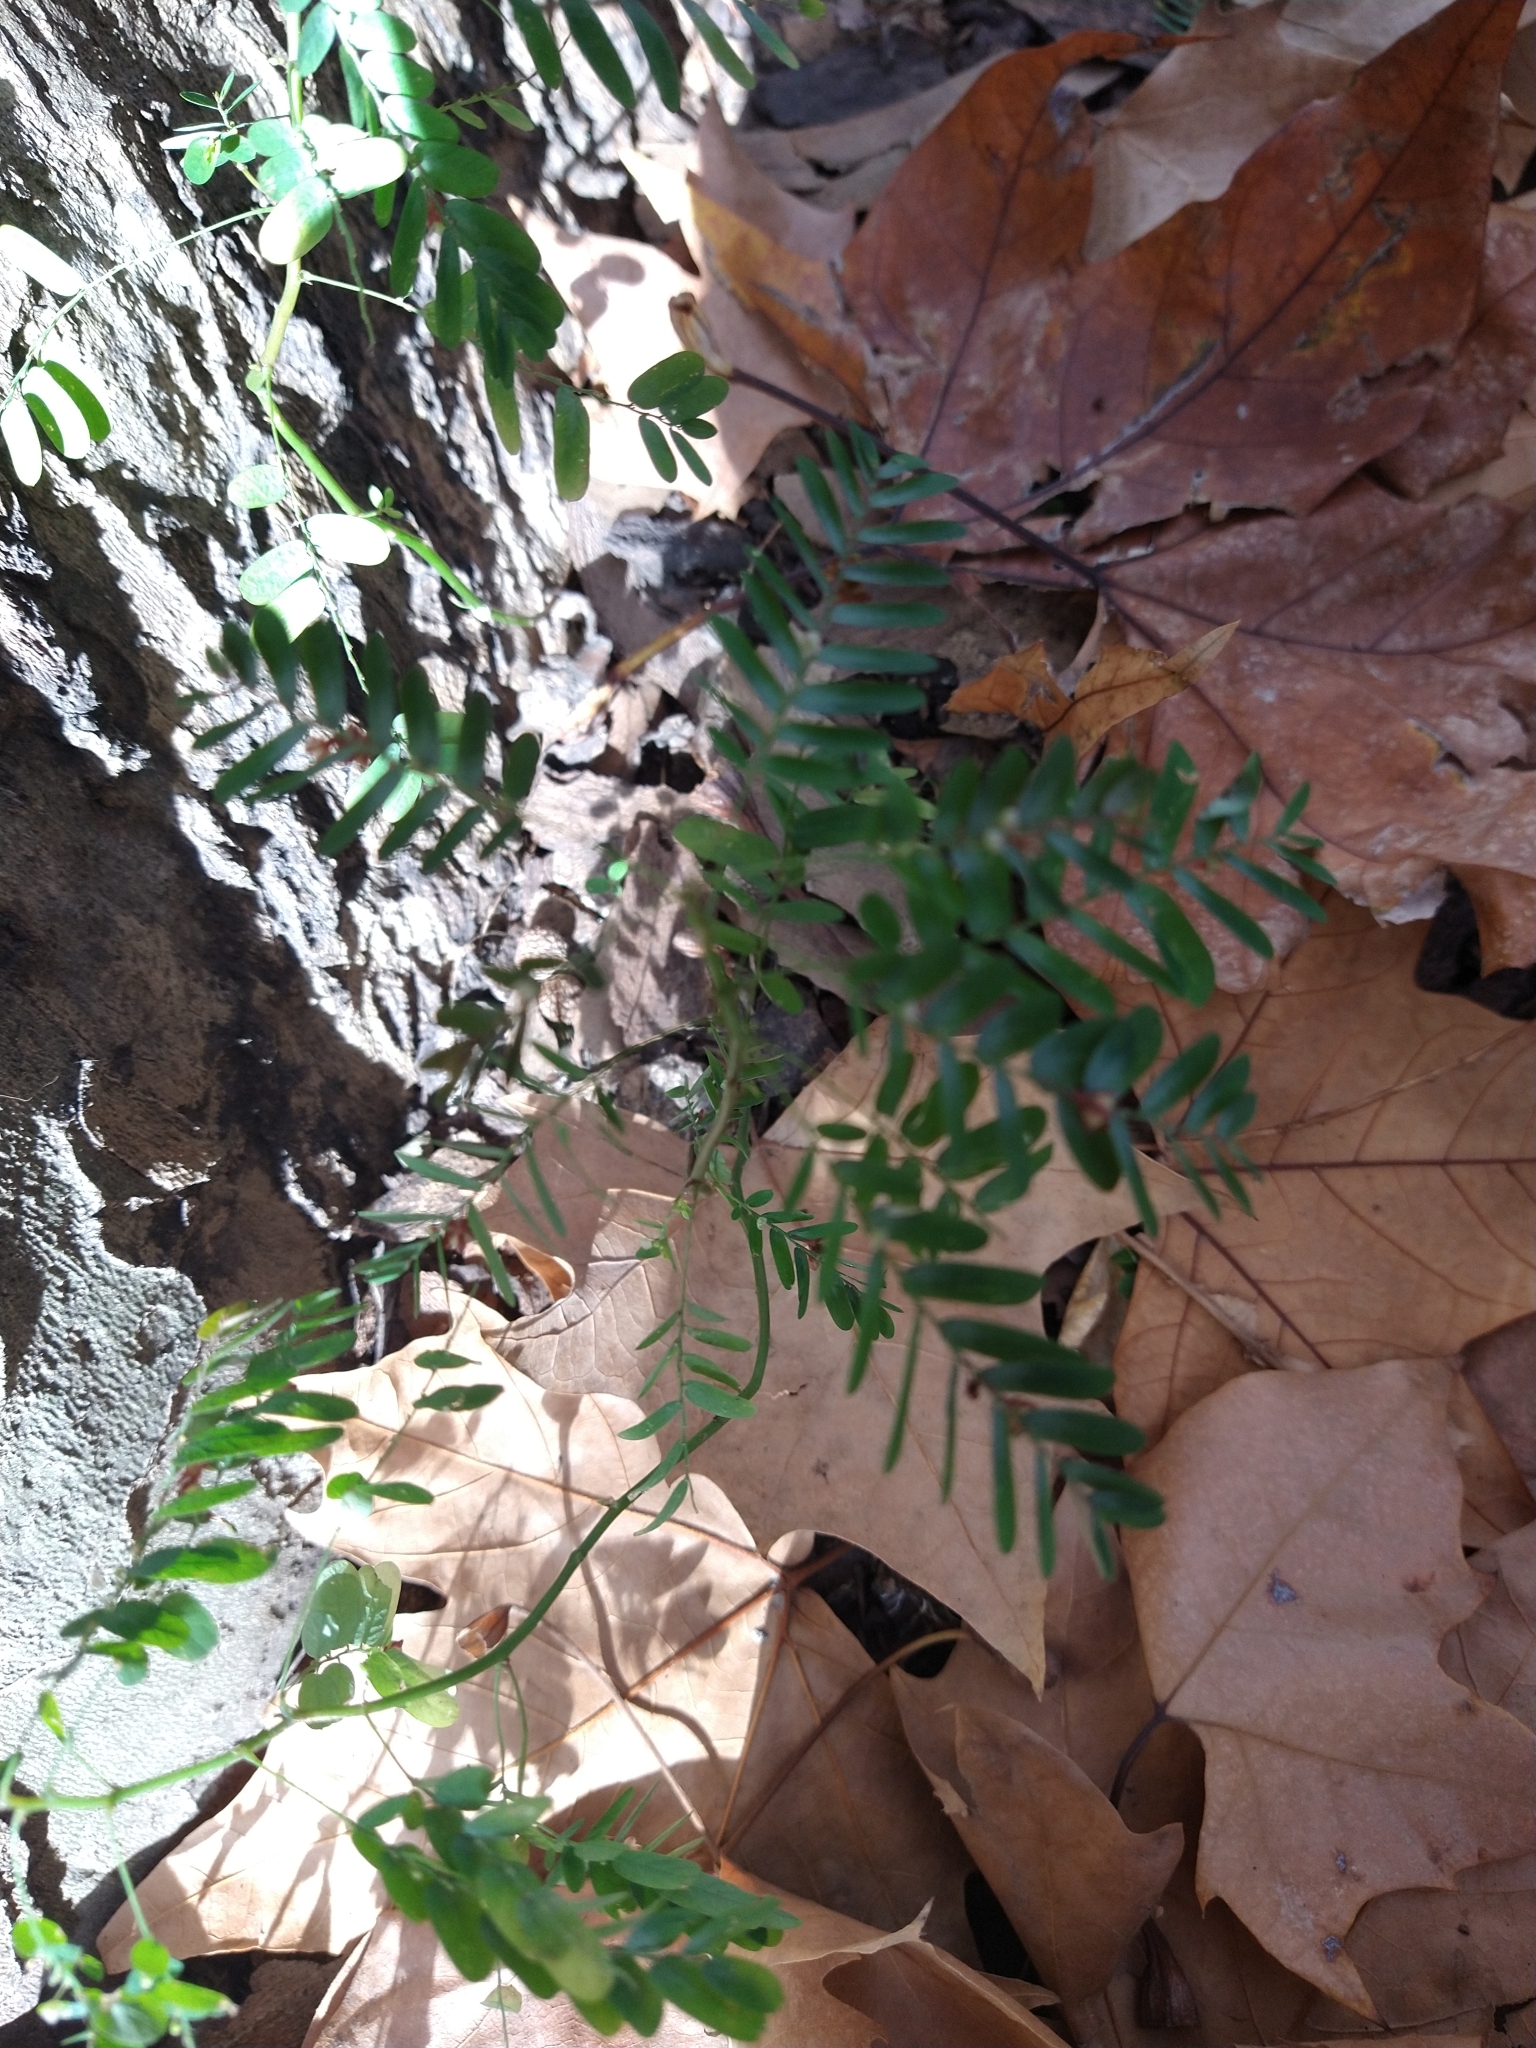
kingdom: Plantae
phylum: Tracheophyta
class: Magnoliopsida
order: Malpighiales
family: Phyllanthaceae
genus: Phyllanthus
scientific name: Phyllanthus niruri
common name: Niruri
